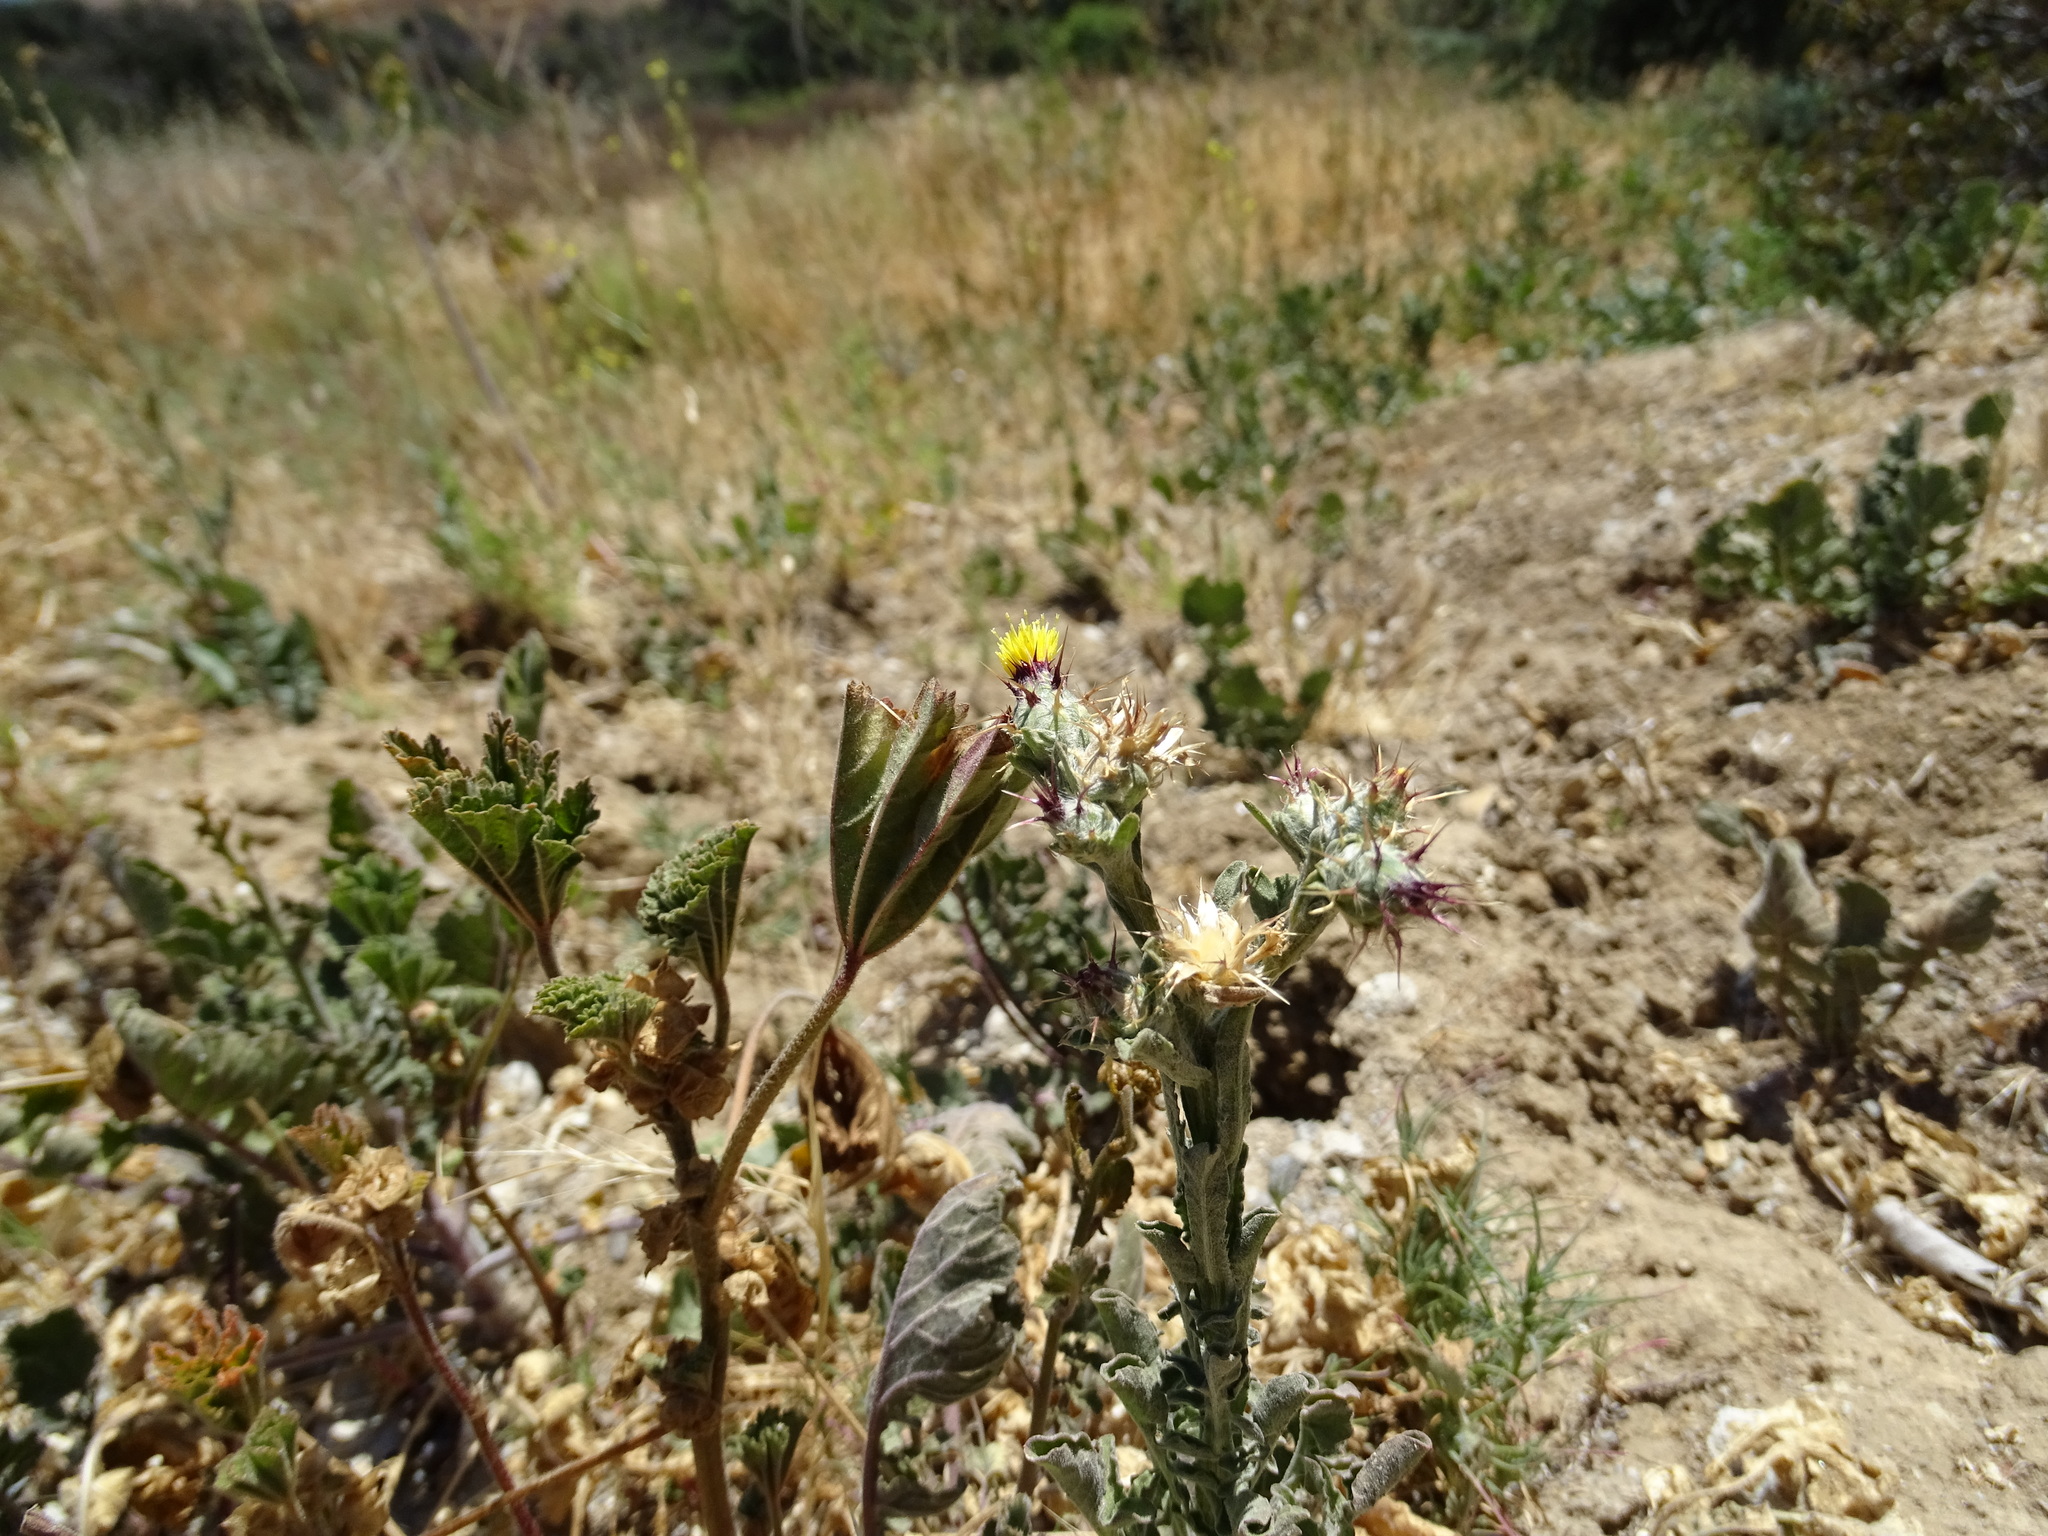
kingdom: Plantae
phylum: Tracheophyta
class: Magnoliopsida
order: Asterales
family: Asteraceae
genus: Centaurea
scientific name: Centaurea melitensis
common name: Maltese star-thistle
